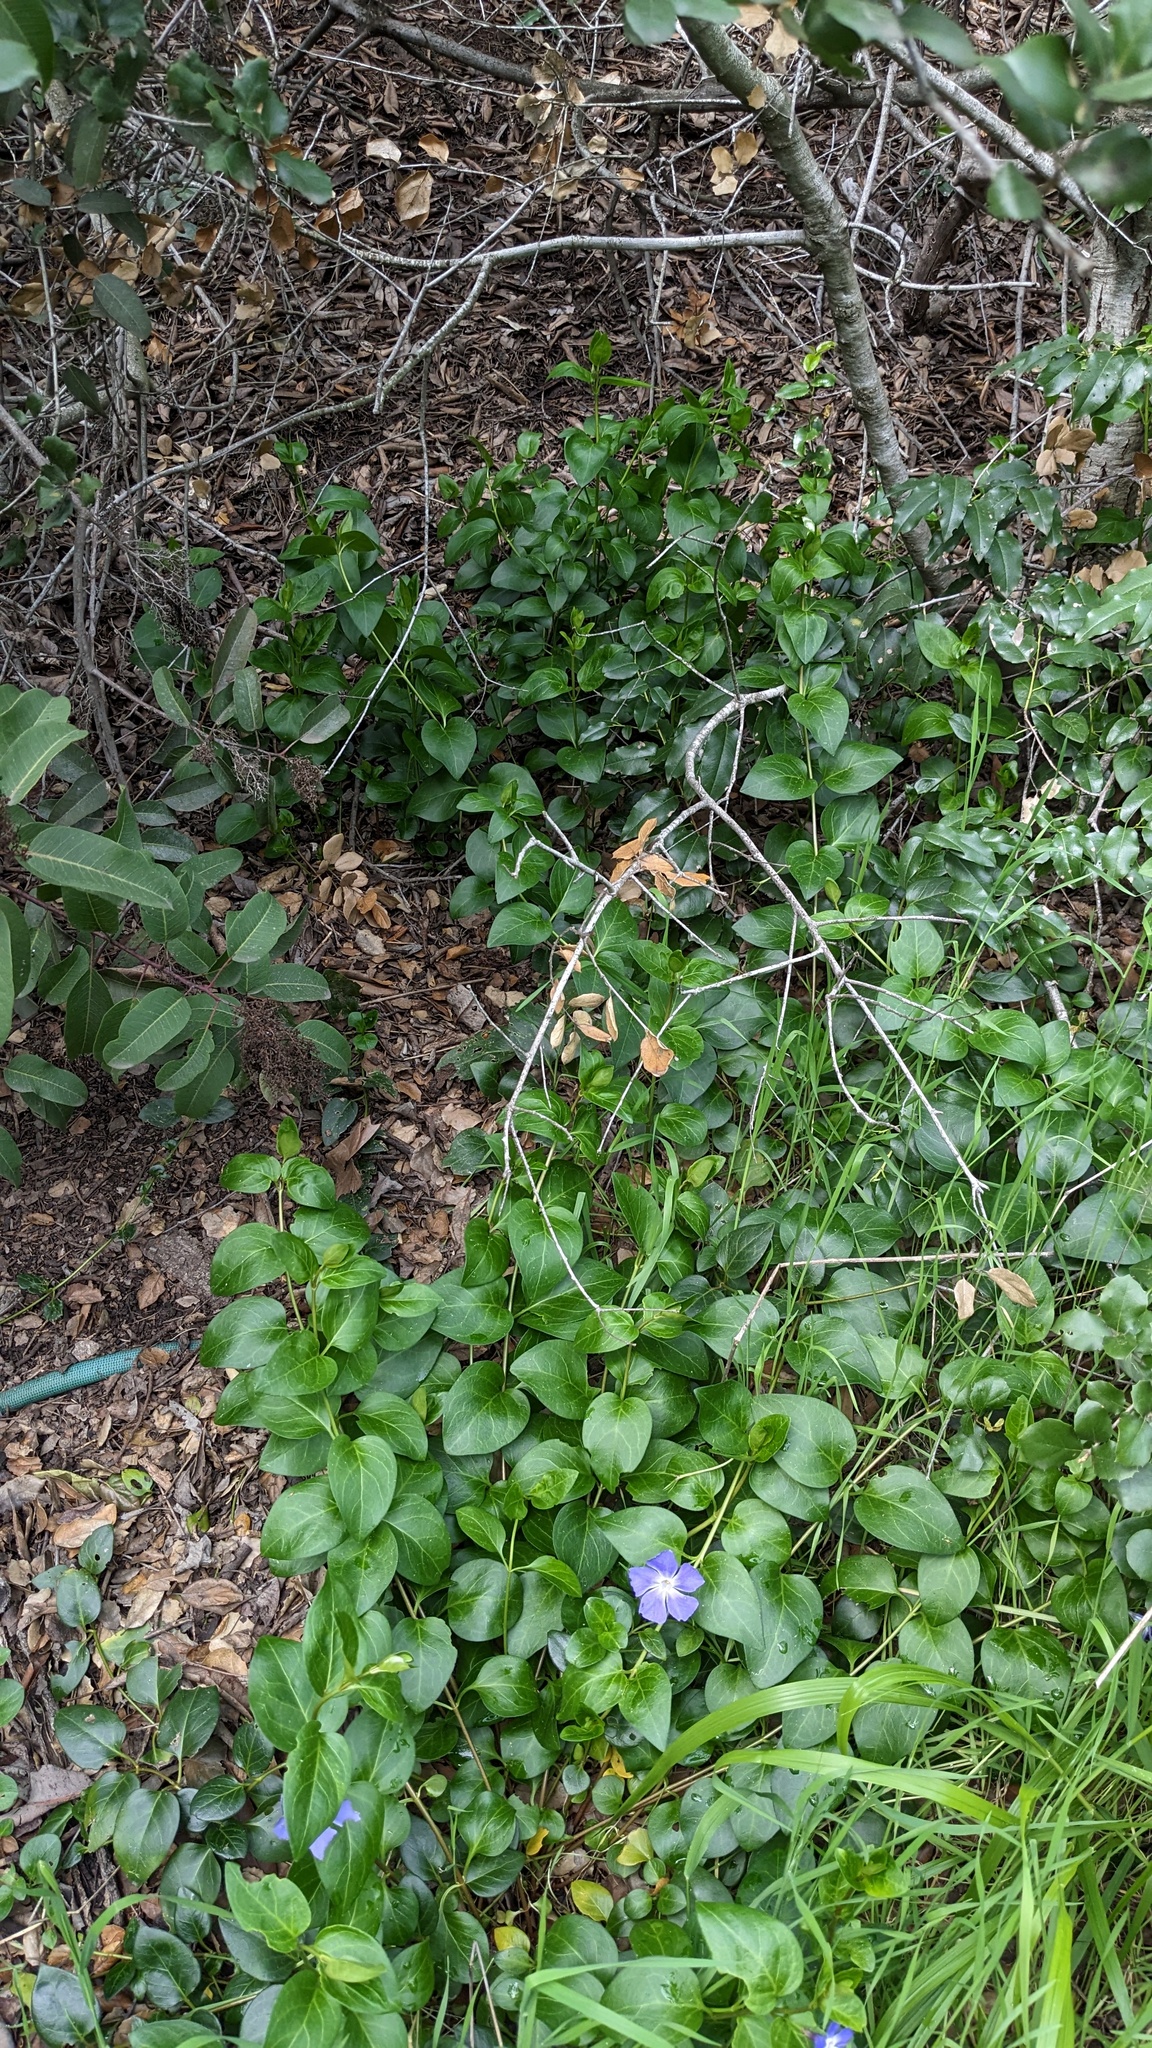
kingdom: Plantae
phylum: Tracheophyta
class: Magnoliopsida
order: Gentianales
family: Apocynaceae
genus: Vinca
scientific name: Vinca major
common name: Greater periwinkle
